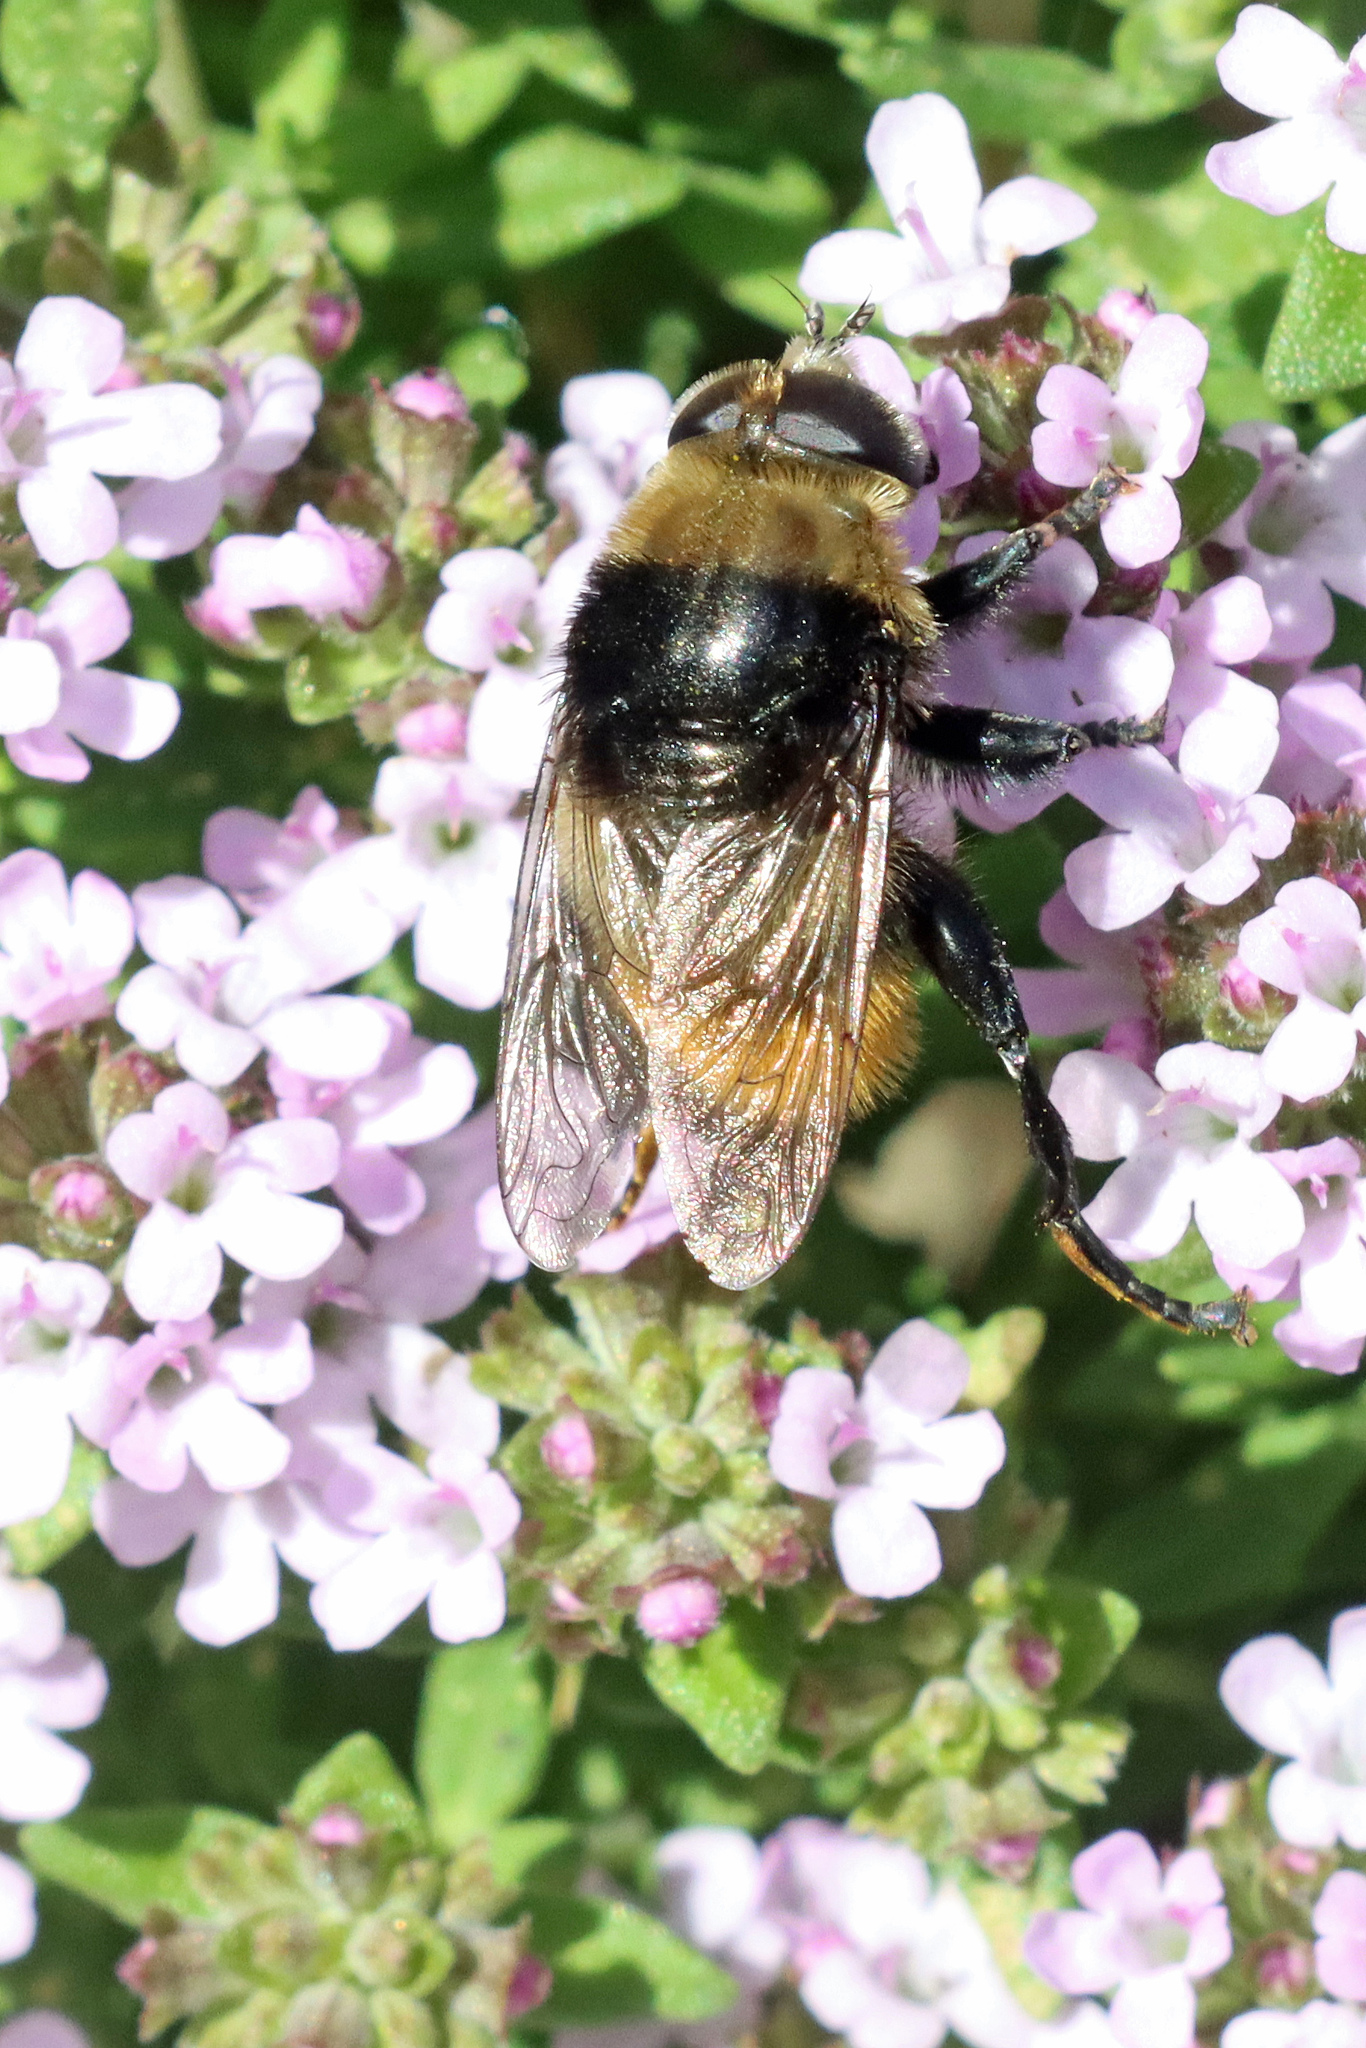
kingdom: Animalia
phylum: Arthropoda
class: Insecta
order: Diptera
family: Syrphidae
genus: Merodon
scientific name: Merodon equestris
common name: Greater bulb-fly
